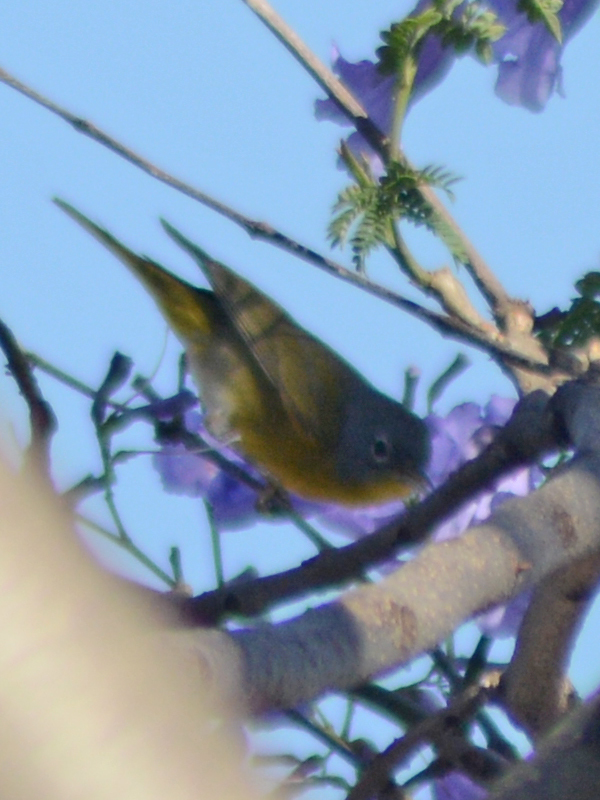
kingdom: Animalia
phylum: Chordata
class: Aves
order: Passeriformes
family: Parulidae
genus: Leiothlypis
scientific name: Leiothlypis ruficapilla
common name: Nashville warbler
